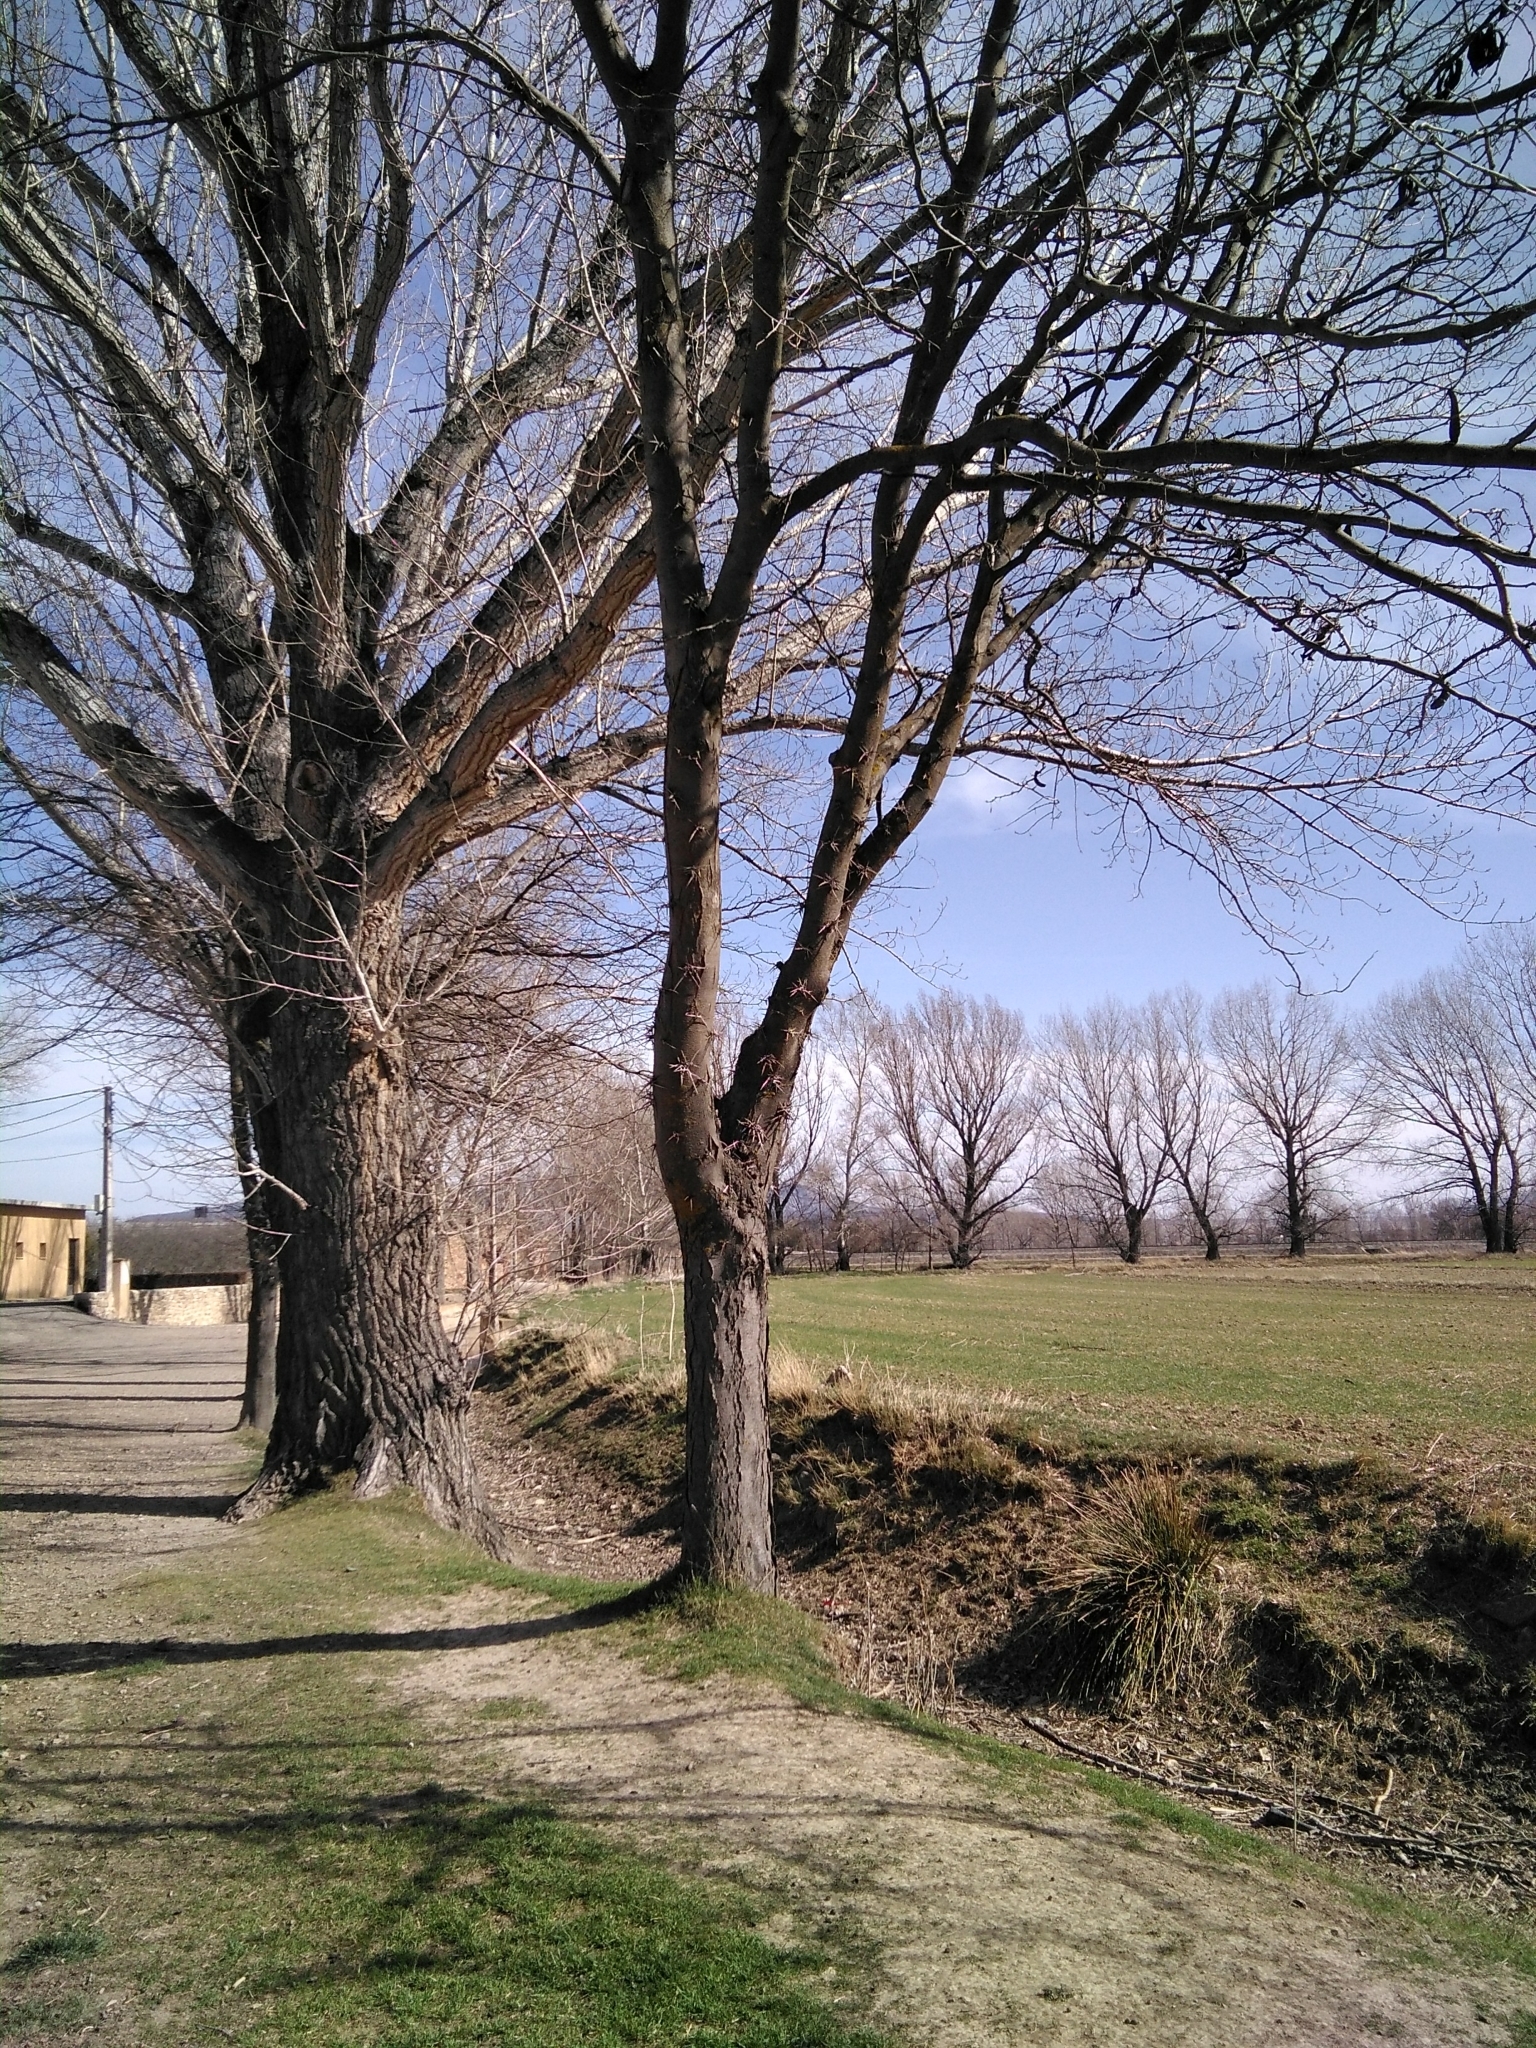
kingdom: Plantae
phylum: Tracheophyta
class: Magnoliopsida
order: Fabales
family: Fabaceae
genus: Gleditsia
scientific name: Gleditsia triacanthos
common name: Common honeylocust
